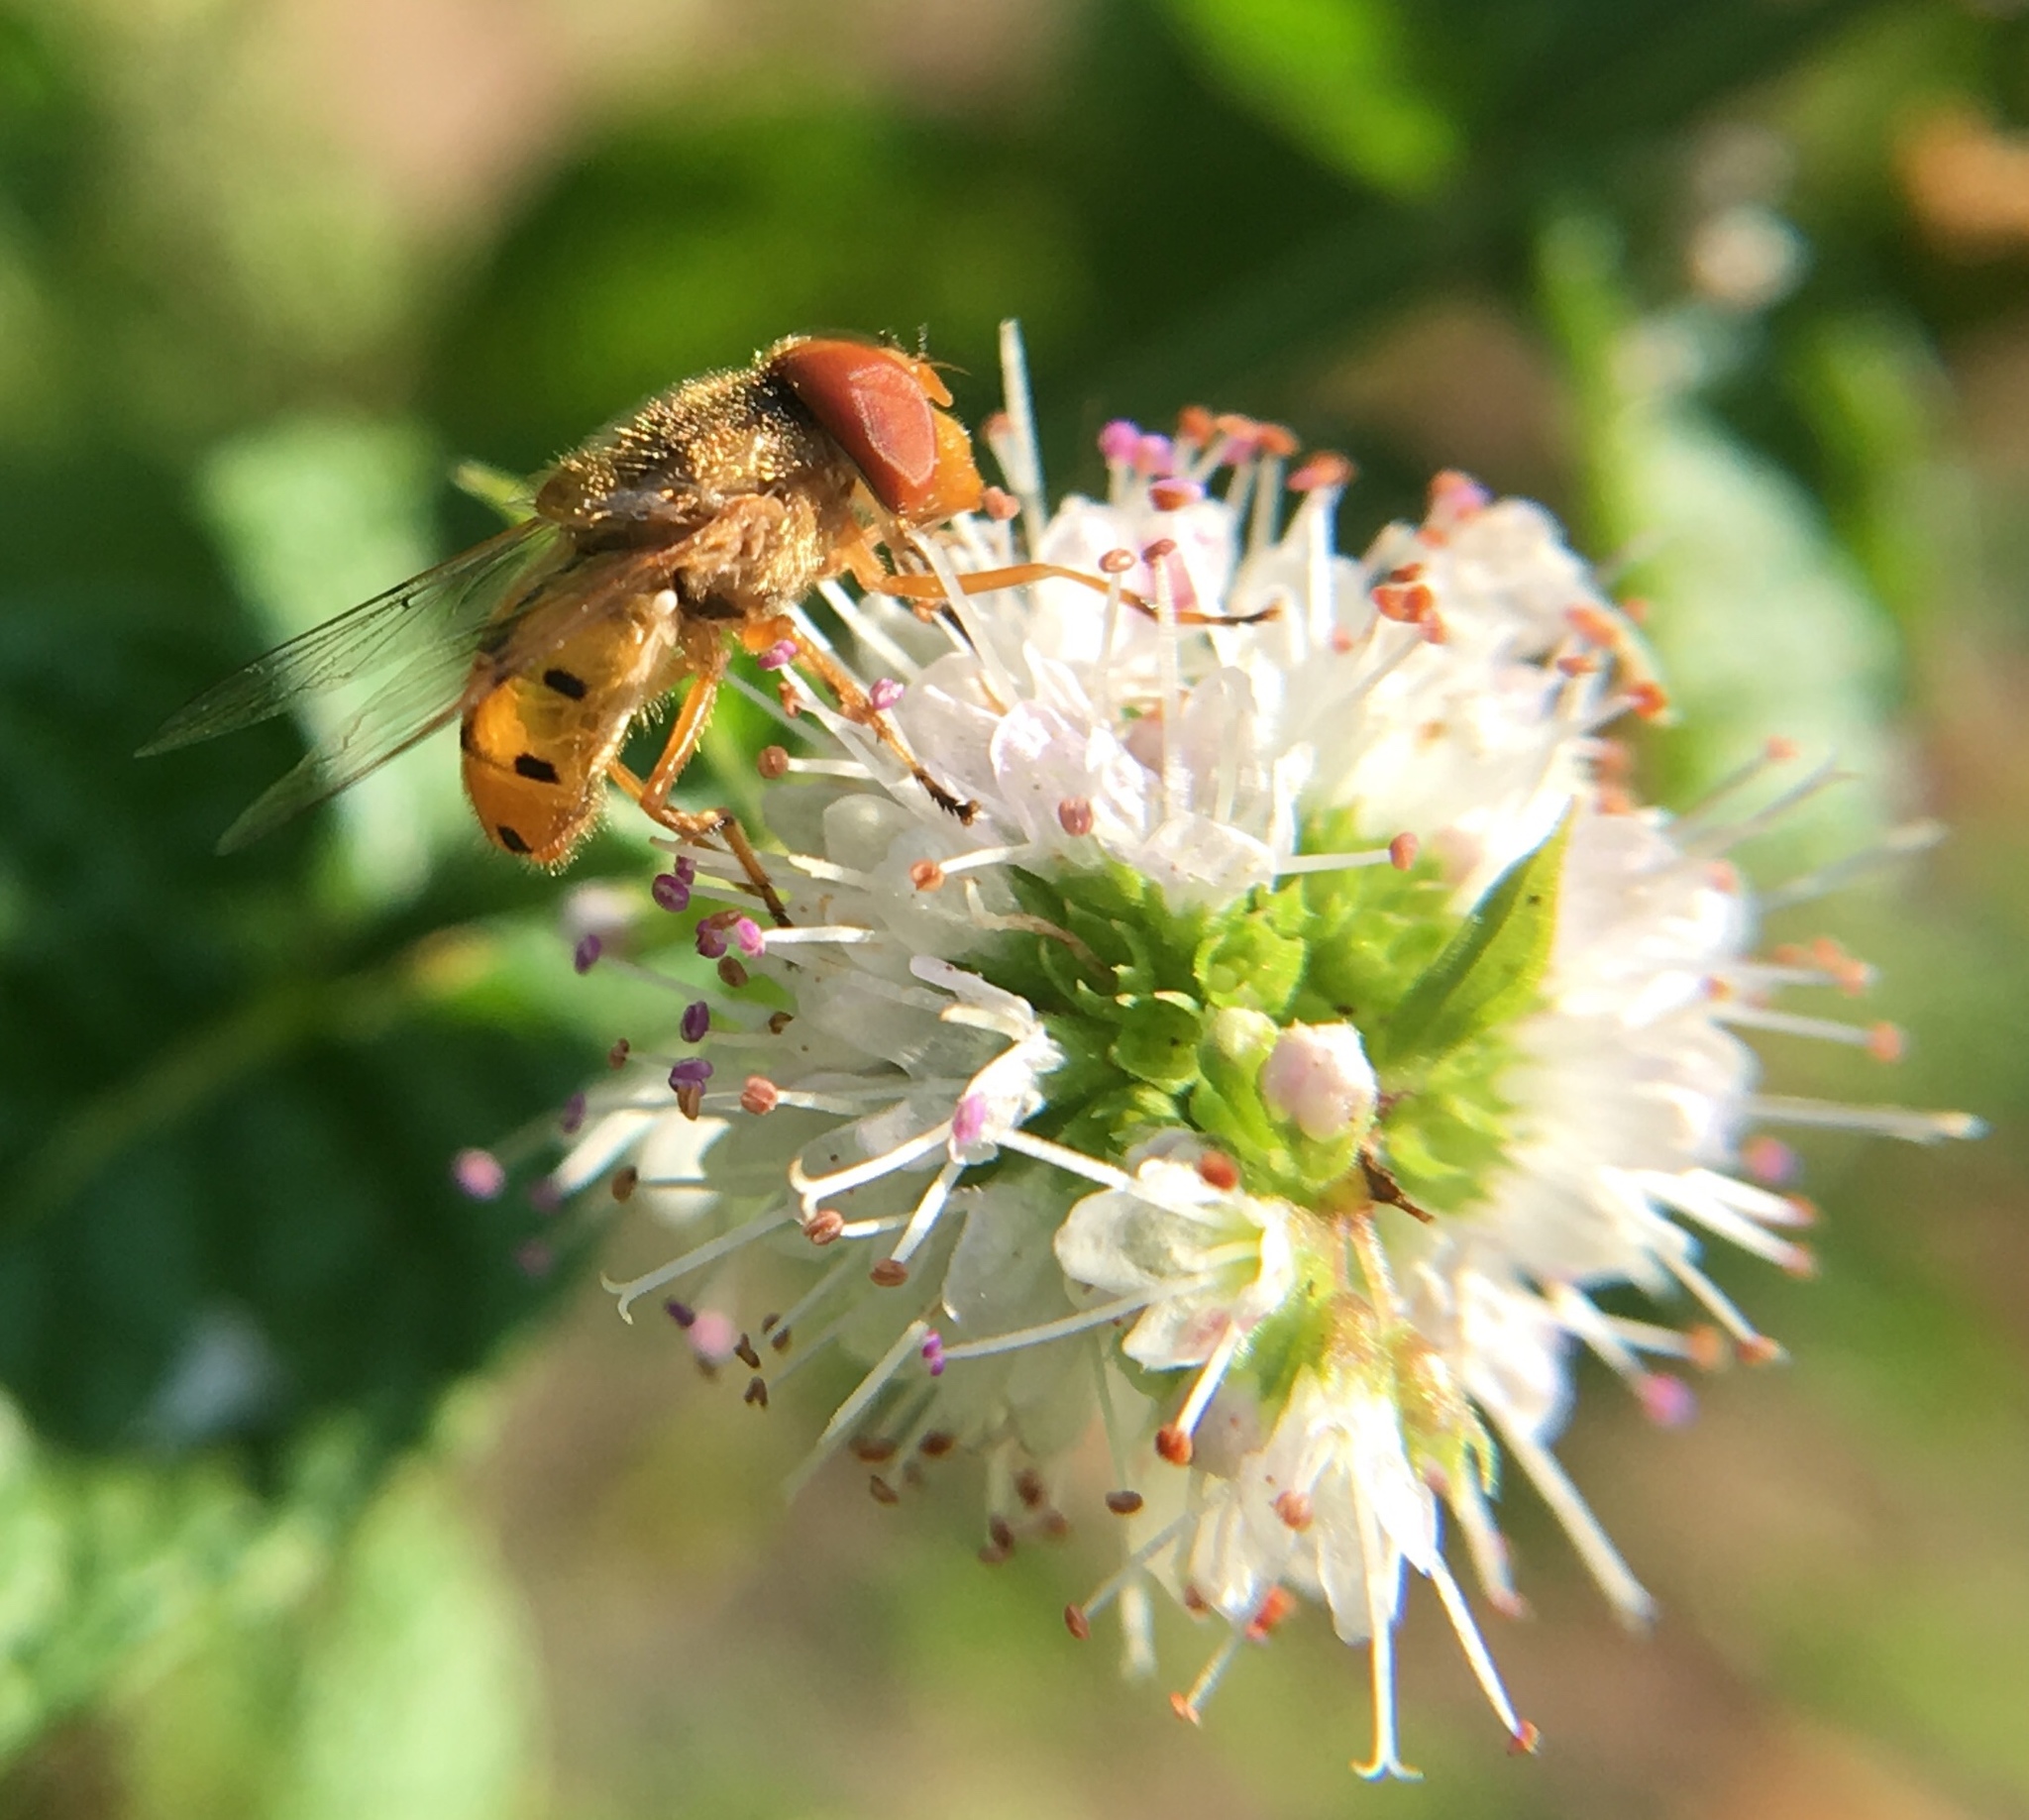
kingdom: Animalia
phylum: Arthropoda
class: Insecta
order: Diptera
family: Syrphidae
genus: Copestylum
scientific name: Copestylum sexmaculatum
